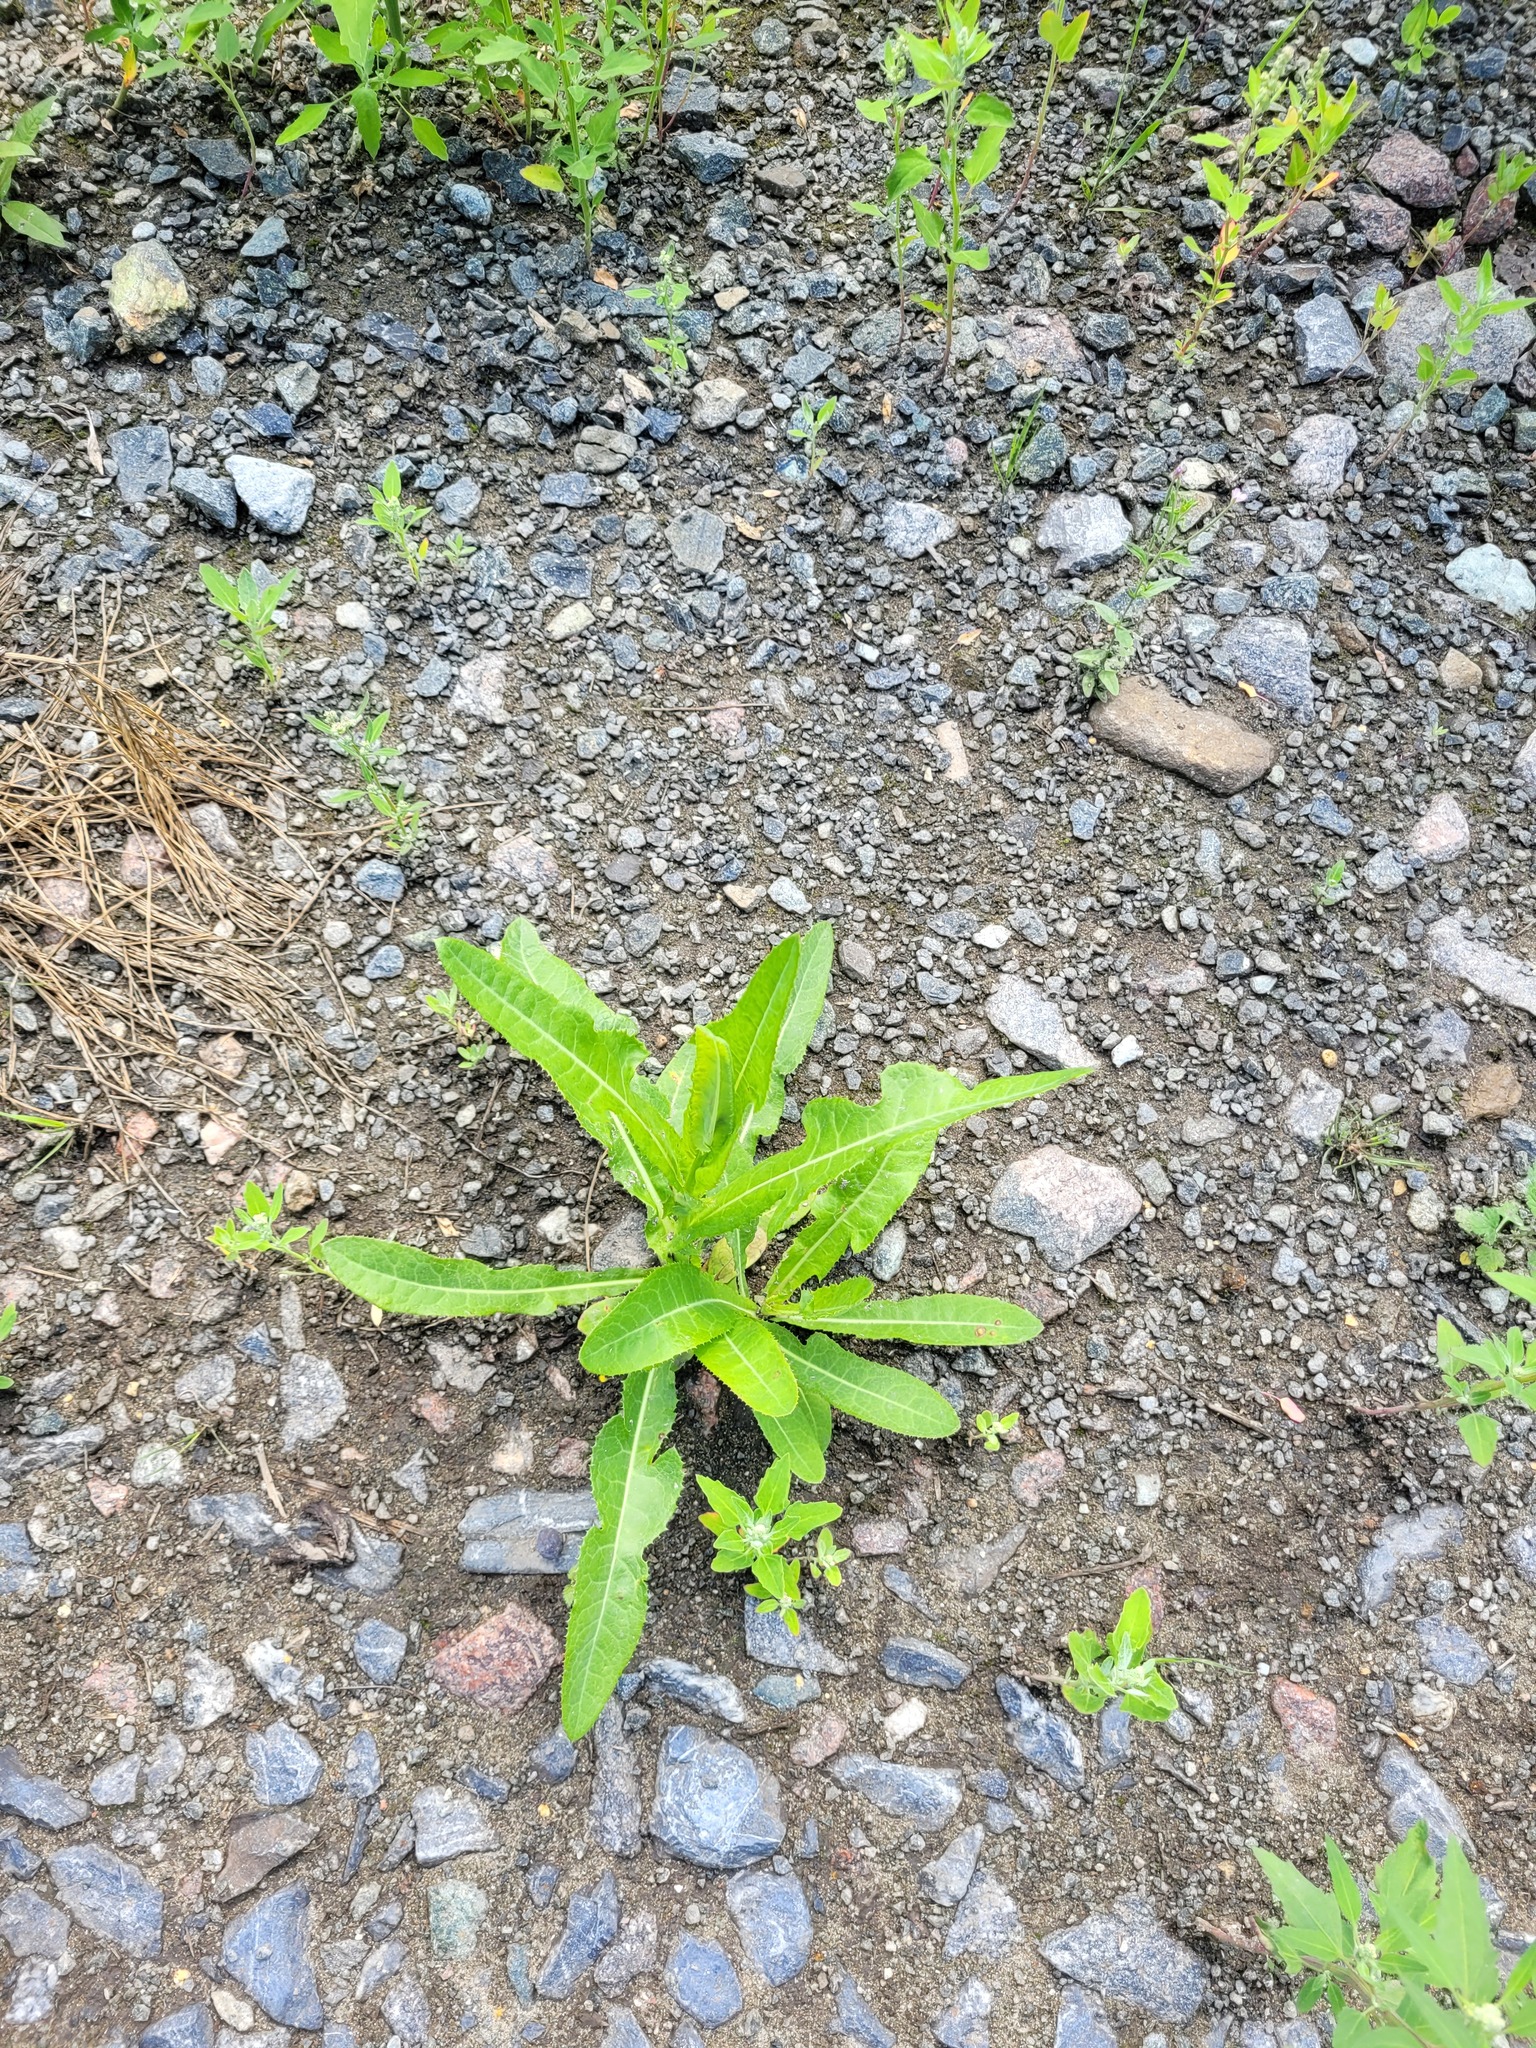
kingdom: Plantae
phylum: Tracheophyta
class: Magnoliopsida
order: Asterales
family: Asteraceae
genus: Sonchus
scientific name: Sonchus arvensis
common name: Perennial sow-thistle
